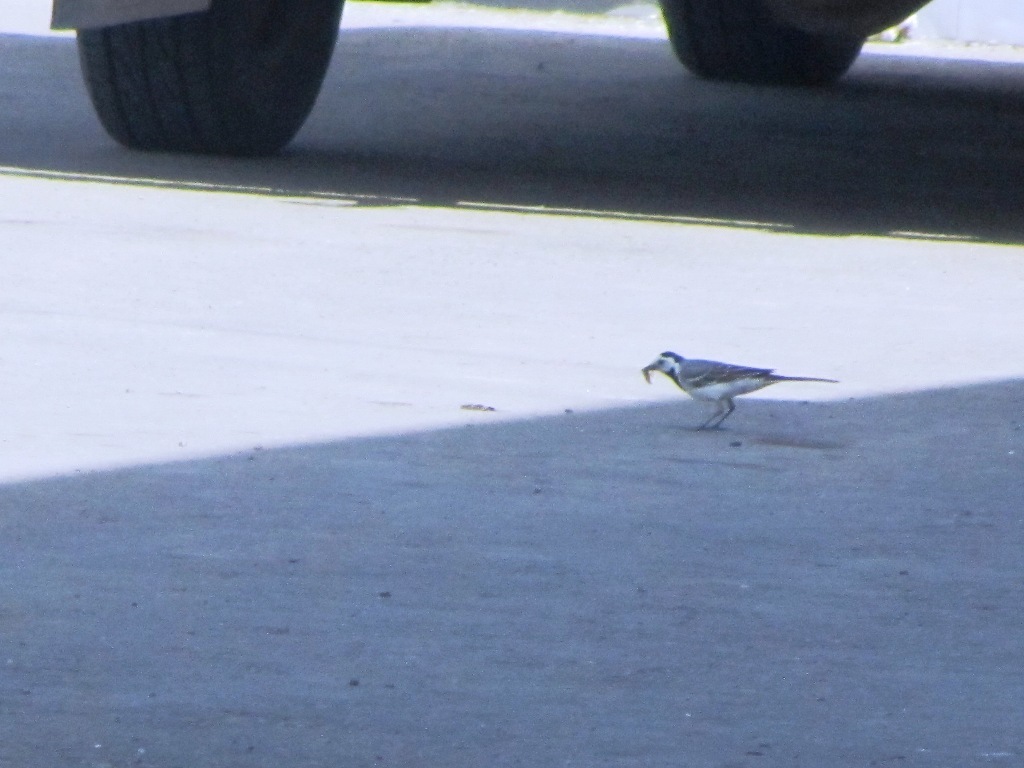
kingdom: Animalia
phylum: Chordata
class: Aves
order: Passeriformes
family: Motacillidae
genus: Motacilla
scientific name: Motacilla alba
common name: White wagtail
